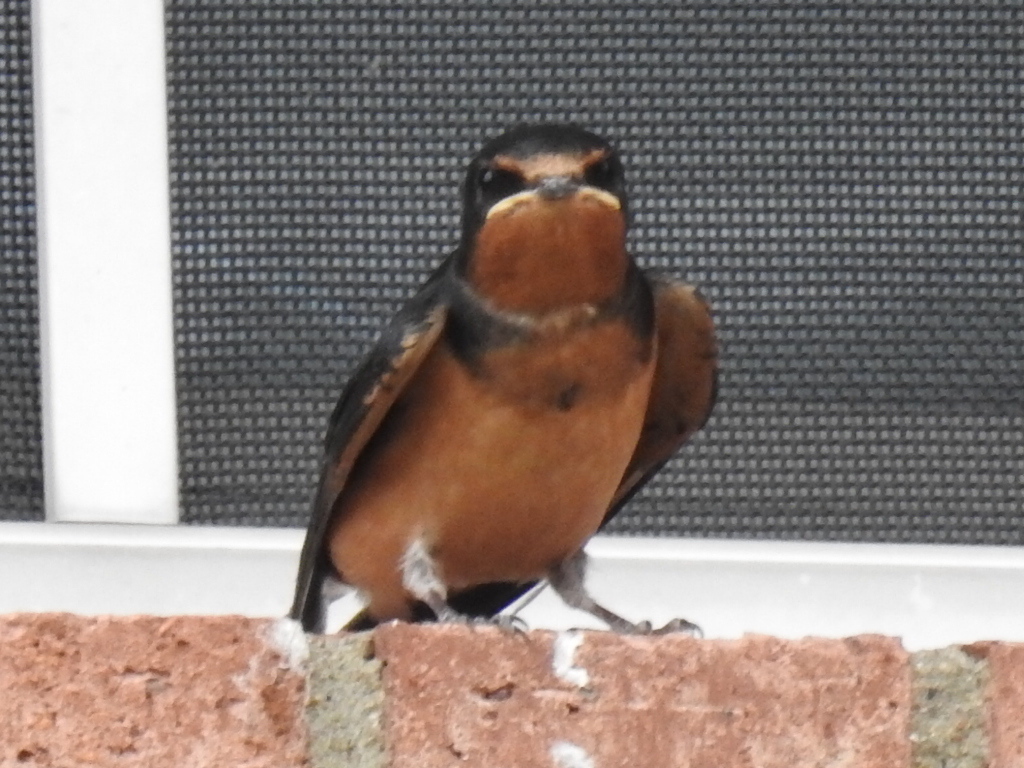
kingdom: Animalia
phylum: Chordata
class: Aves
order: Passeriformes
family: Hirundinidae
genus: Hirundo
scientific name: Hirundo rustica
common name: Barn swallow
